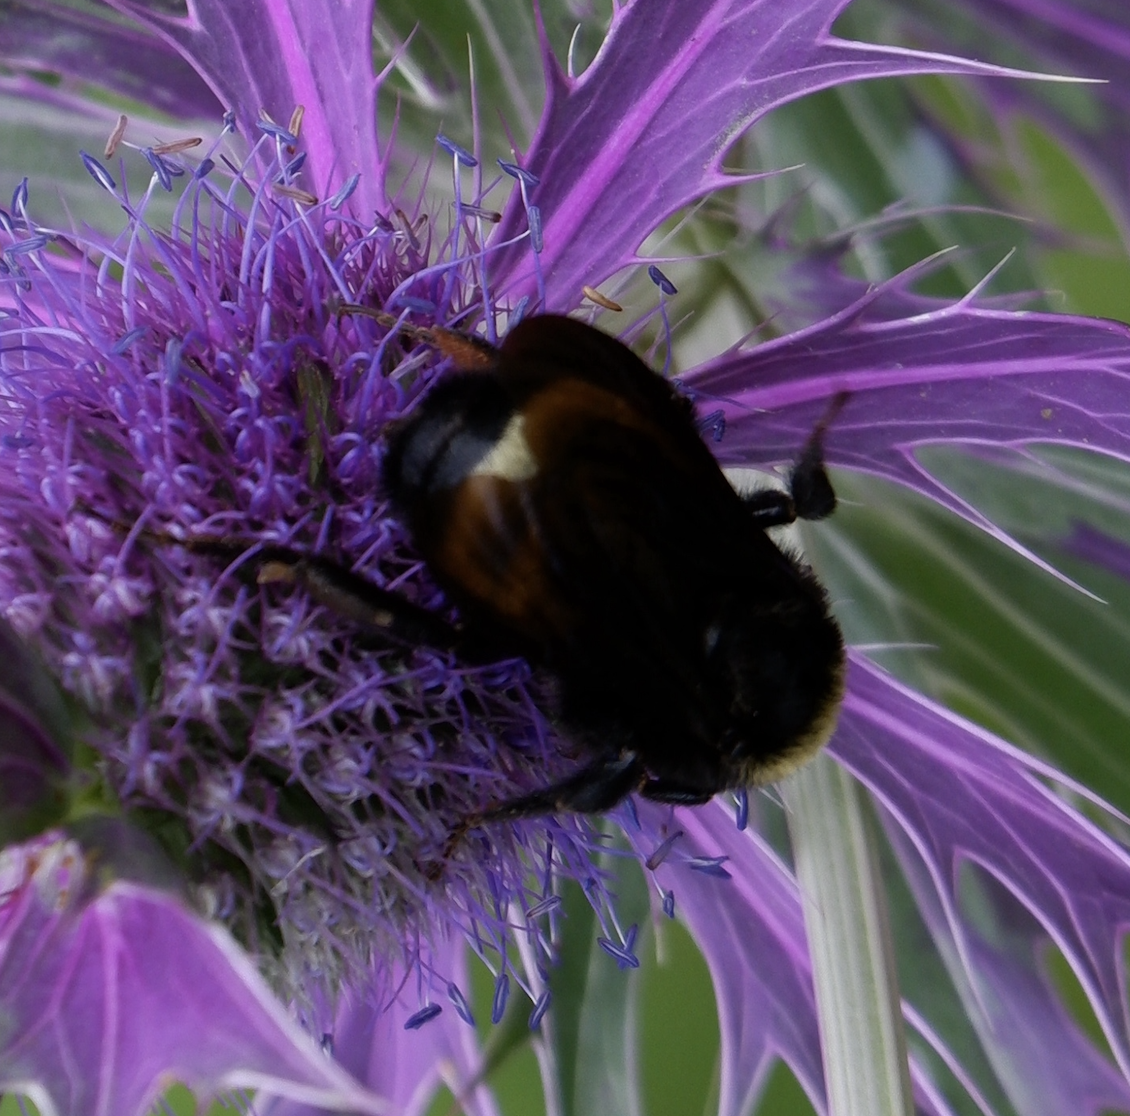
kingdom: Animalia
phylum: Arthropoda
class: Insecta
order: Hymenoptera
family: Apidae
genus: Bombus
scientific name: Bombus pensylvanicus
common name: Bumble bee
